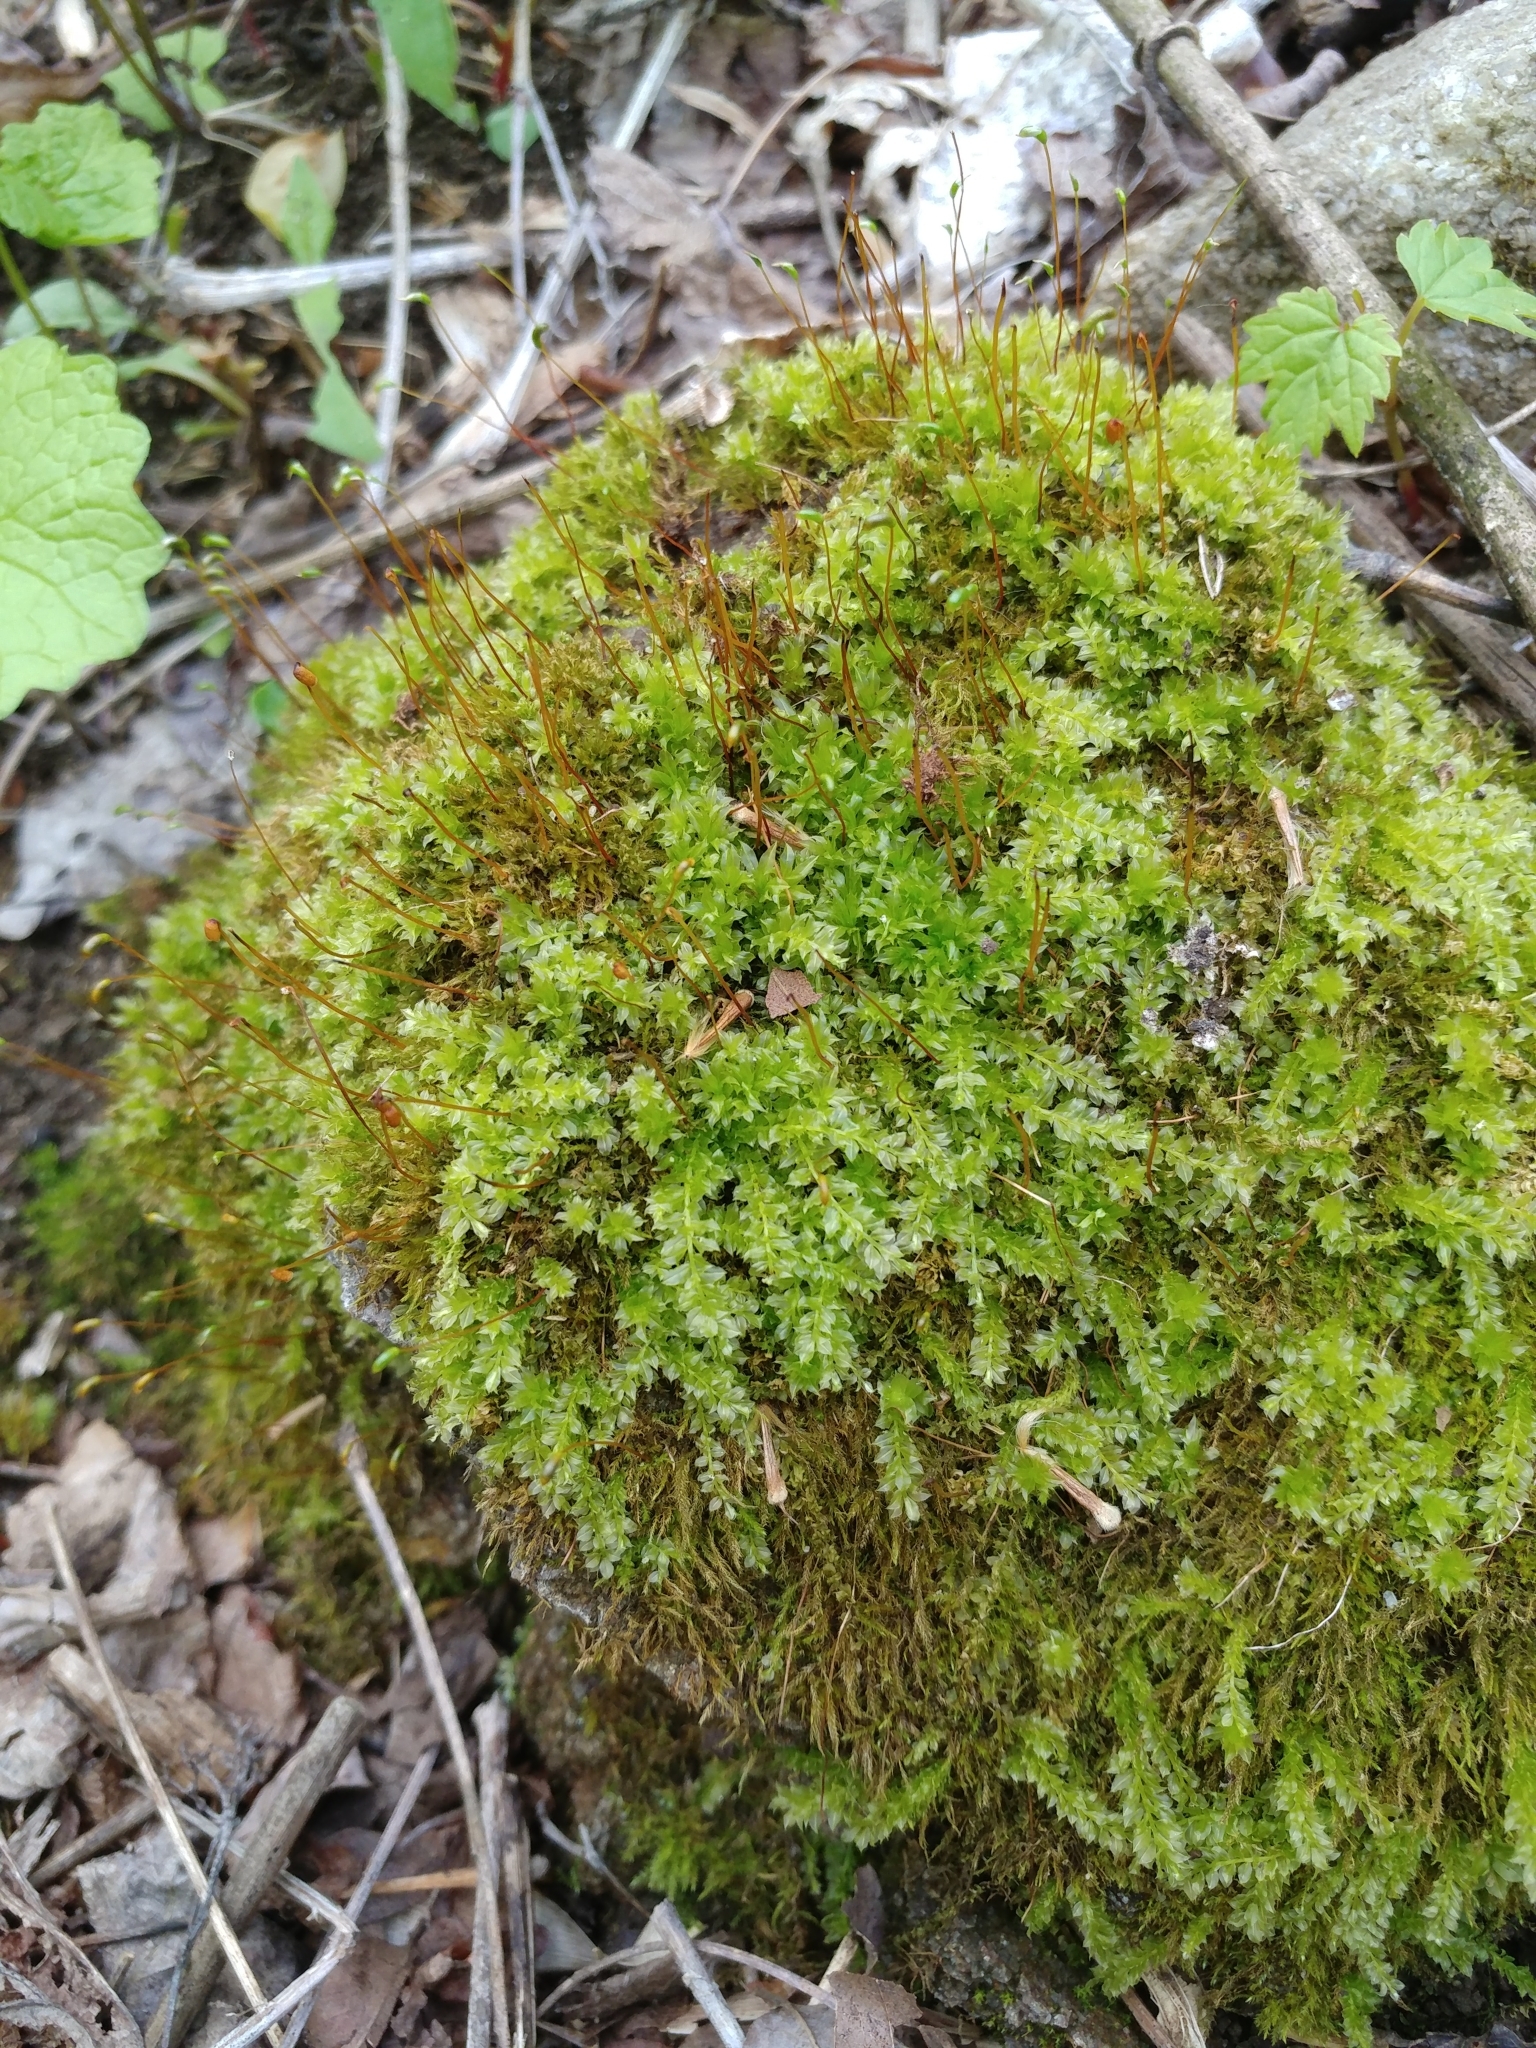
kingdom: Plantae
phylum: Bryophyta
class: Bryopsida
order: Bryales
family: Mniaceae
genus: Plagiomnium
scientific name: Plagiomnium cuspidatum
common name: Woodsy leafy moss
